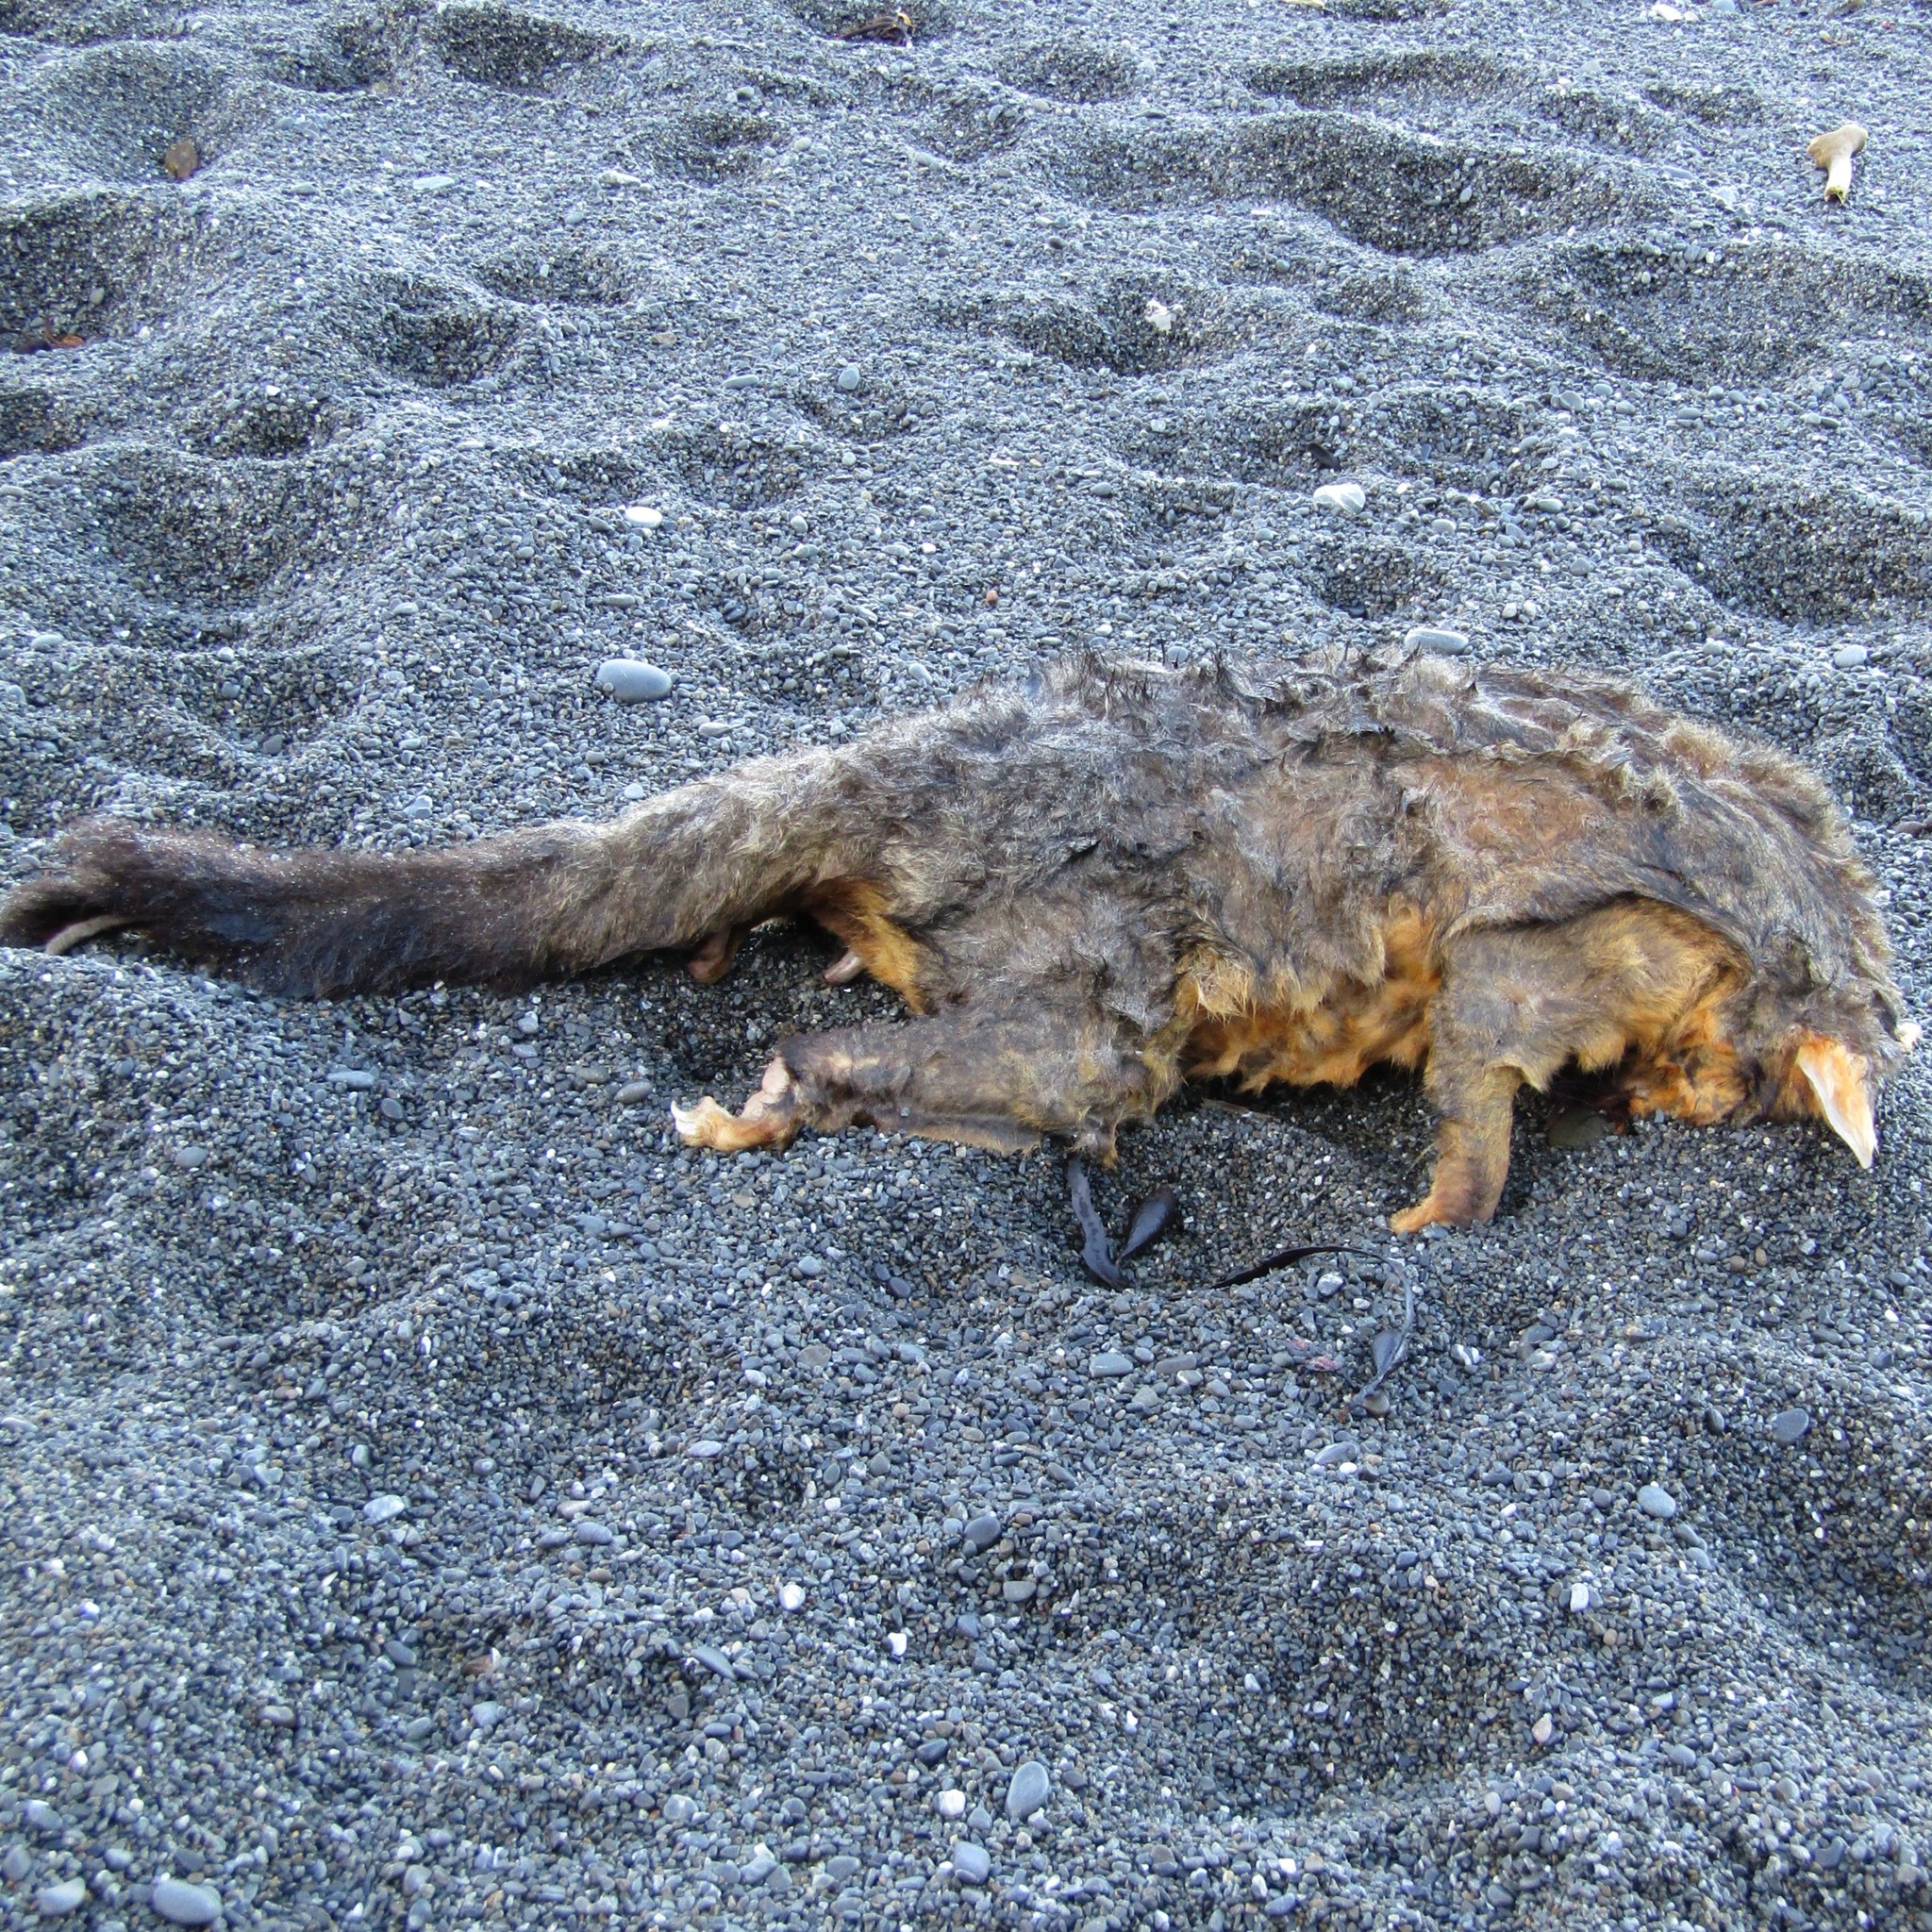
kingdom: Animalia
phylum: Chordata
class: Mammalia
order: Diprotodontia
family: Phalangeridae
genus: Trichosurus
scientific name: Trichosurus vulpecula
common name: Common brushtail
